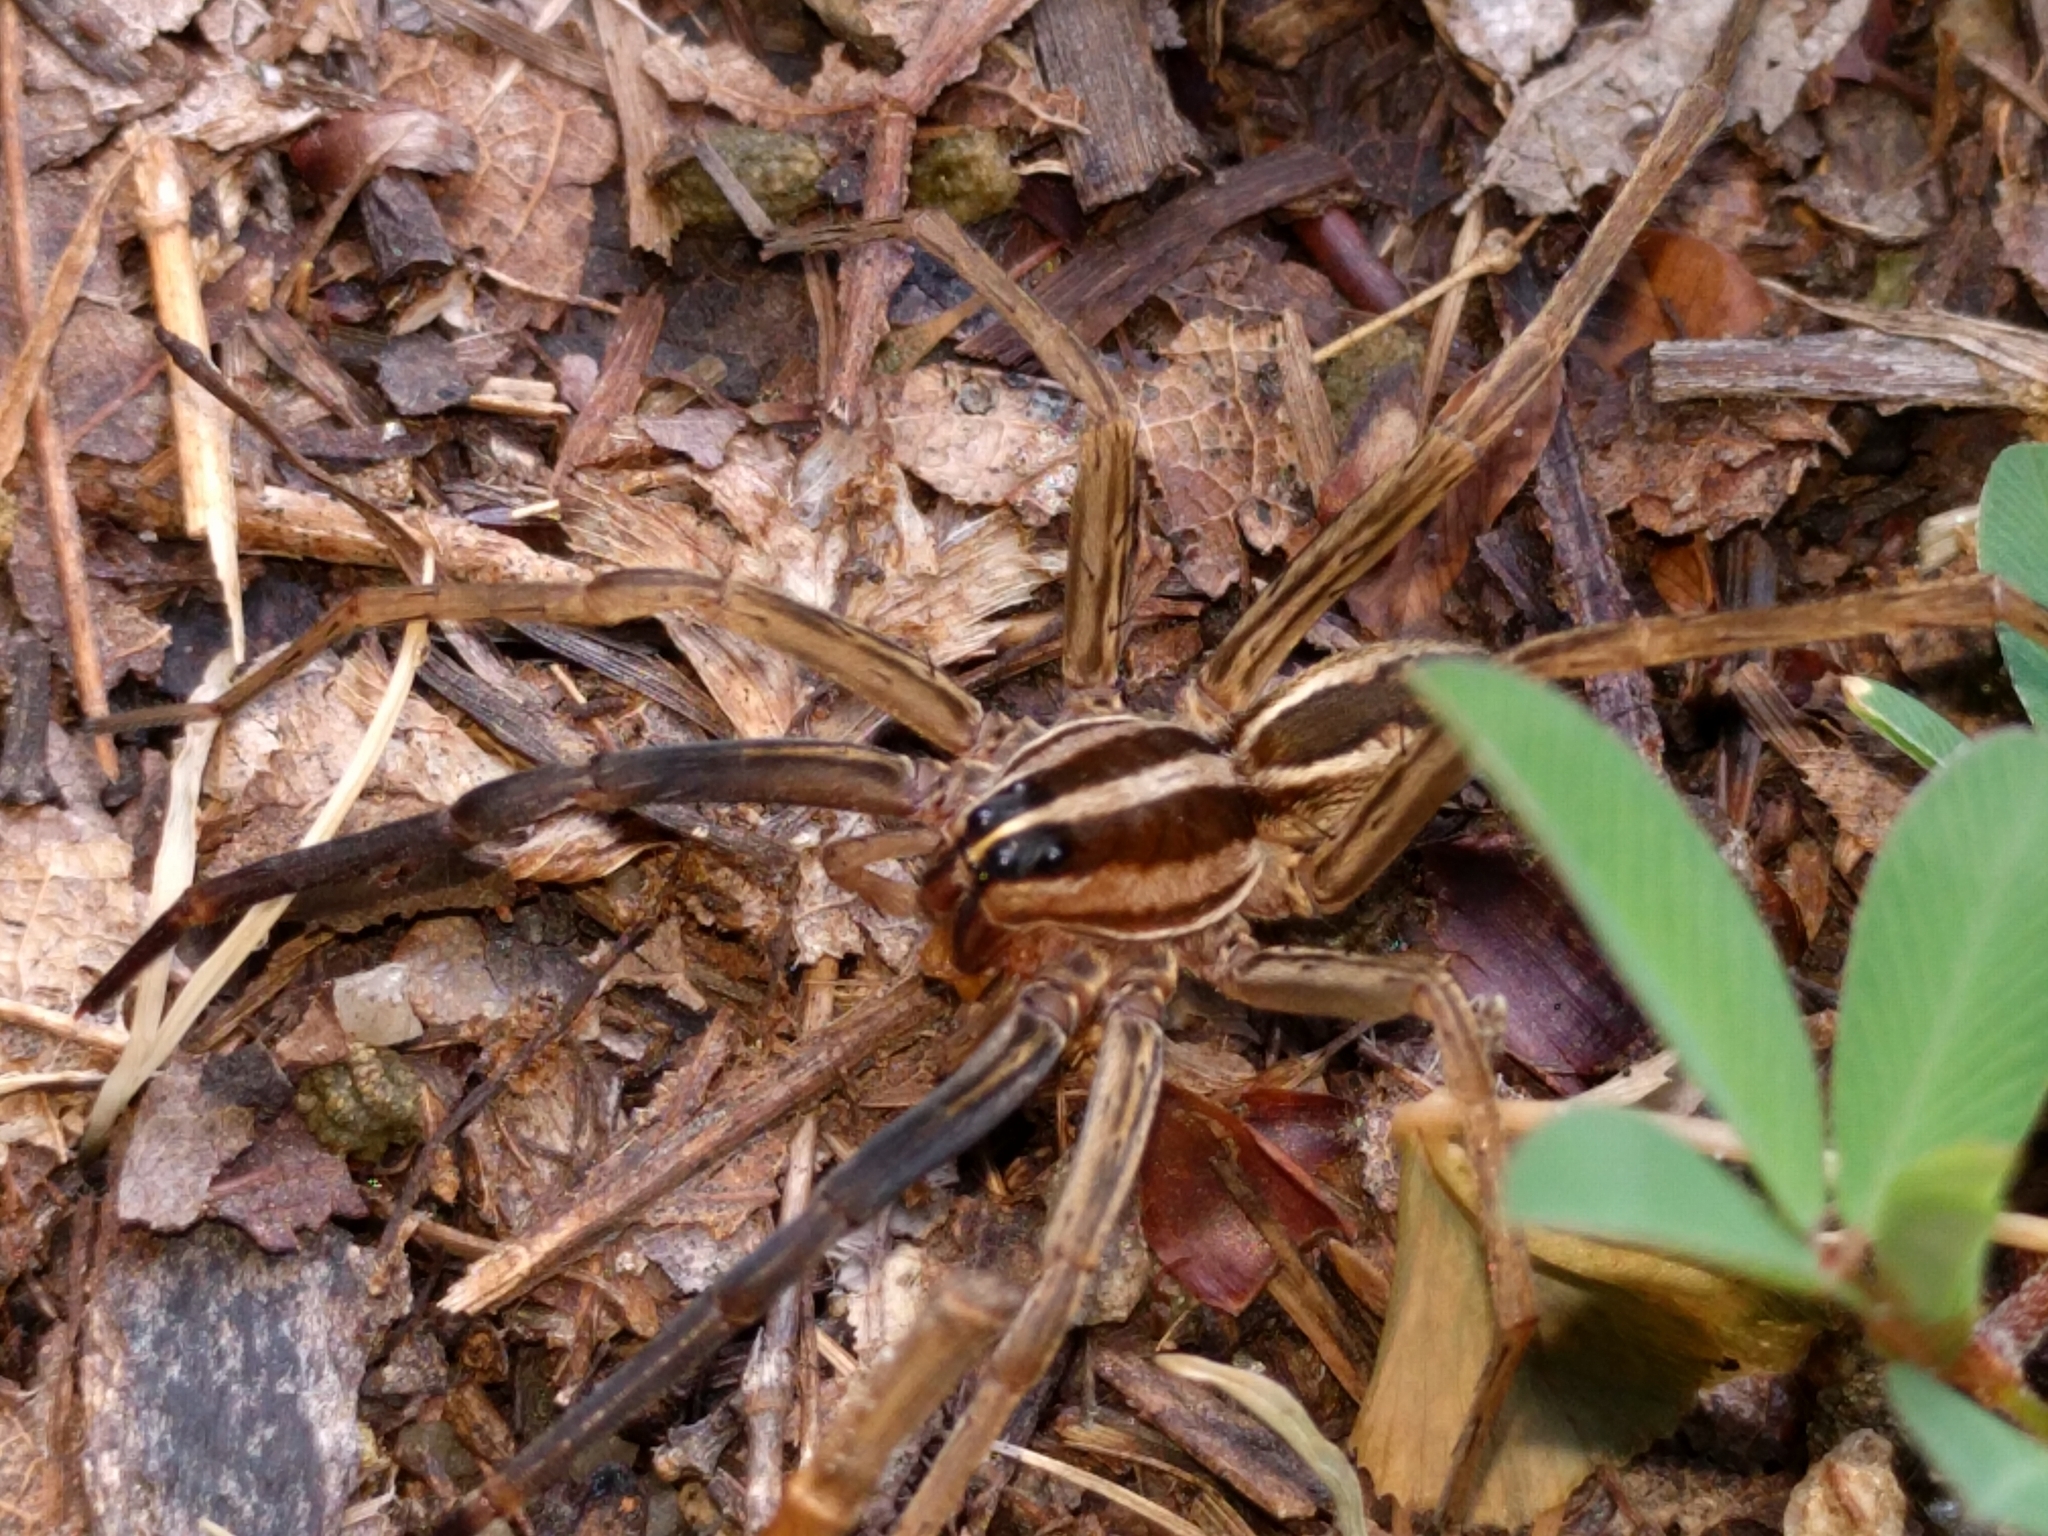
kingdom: Animalia
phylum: Arthropoda
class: Arachnida
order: Araneae
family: Lycosidae
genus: Rabidosa
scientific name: Rabidosa rabida
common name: Rabid wolf spider
